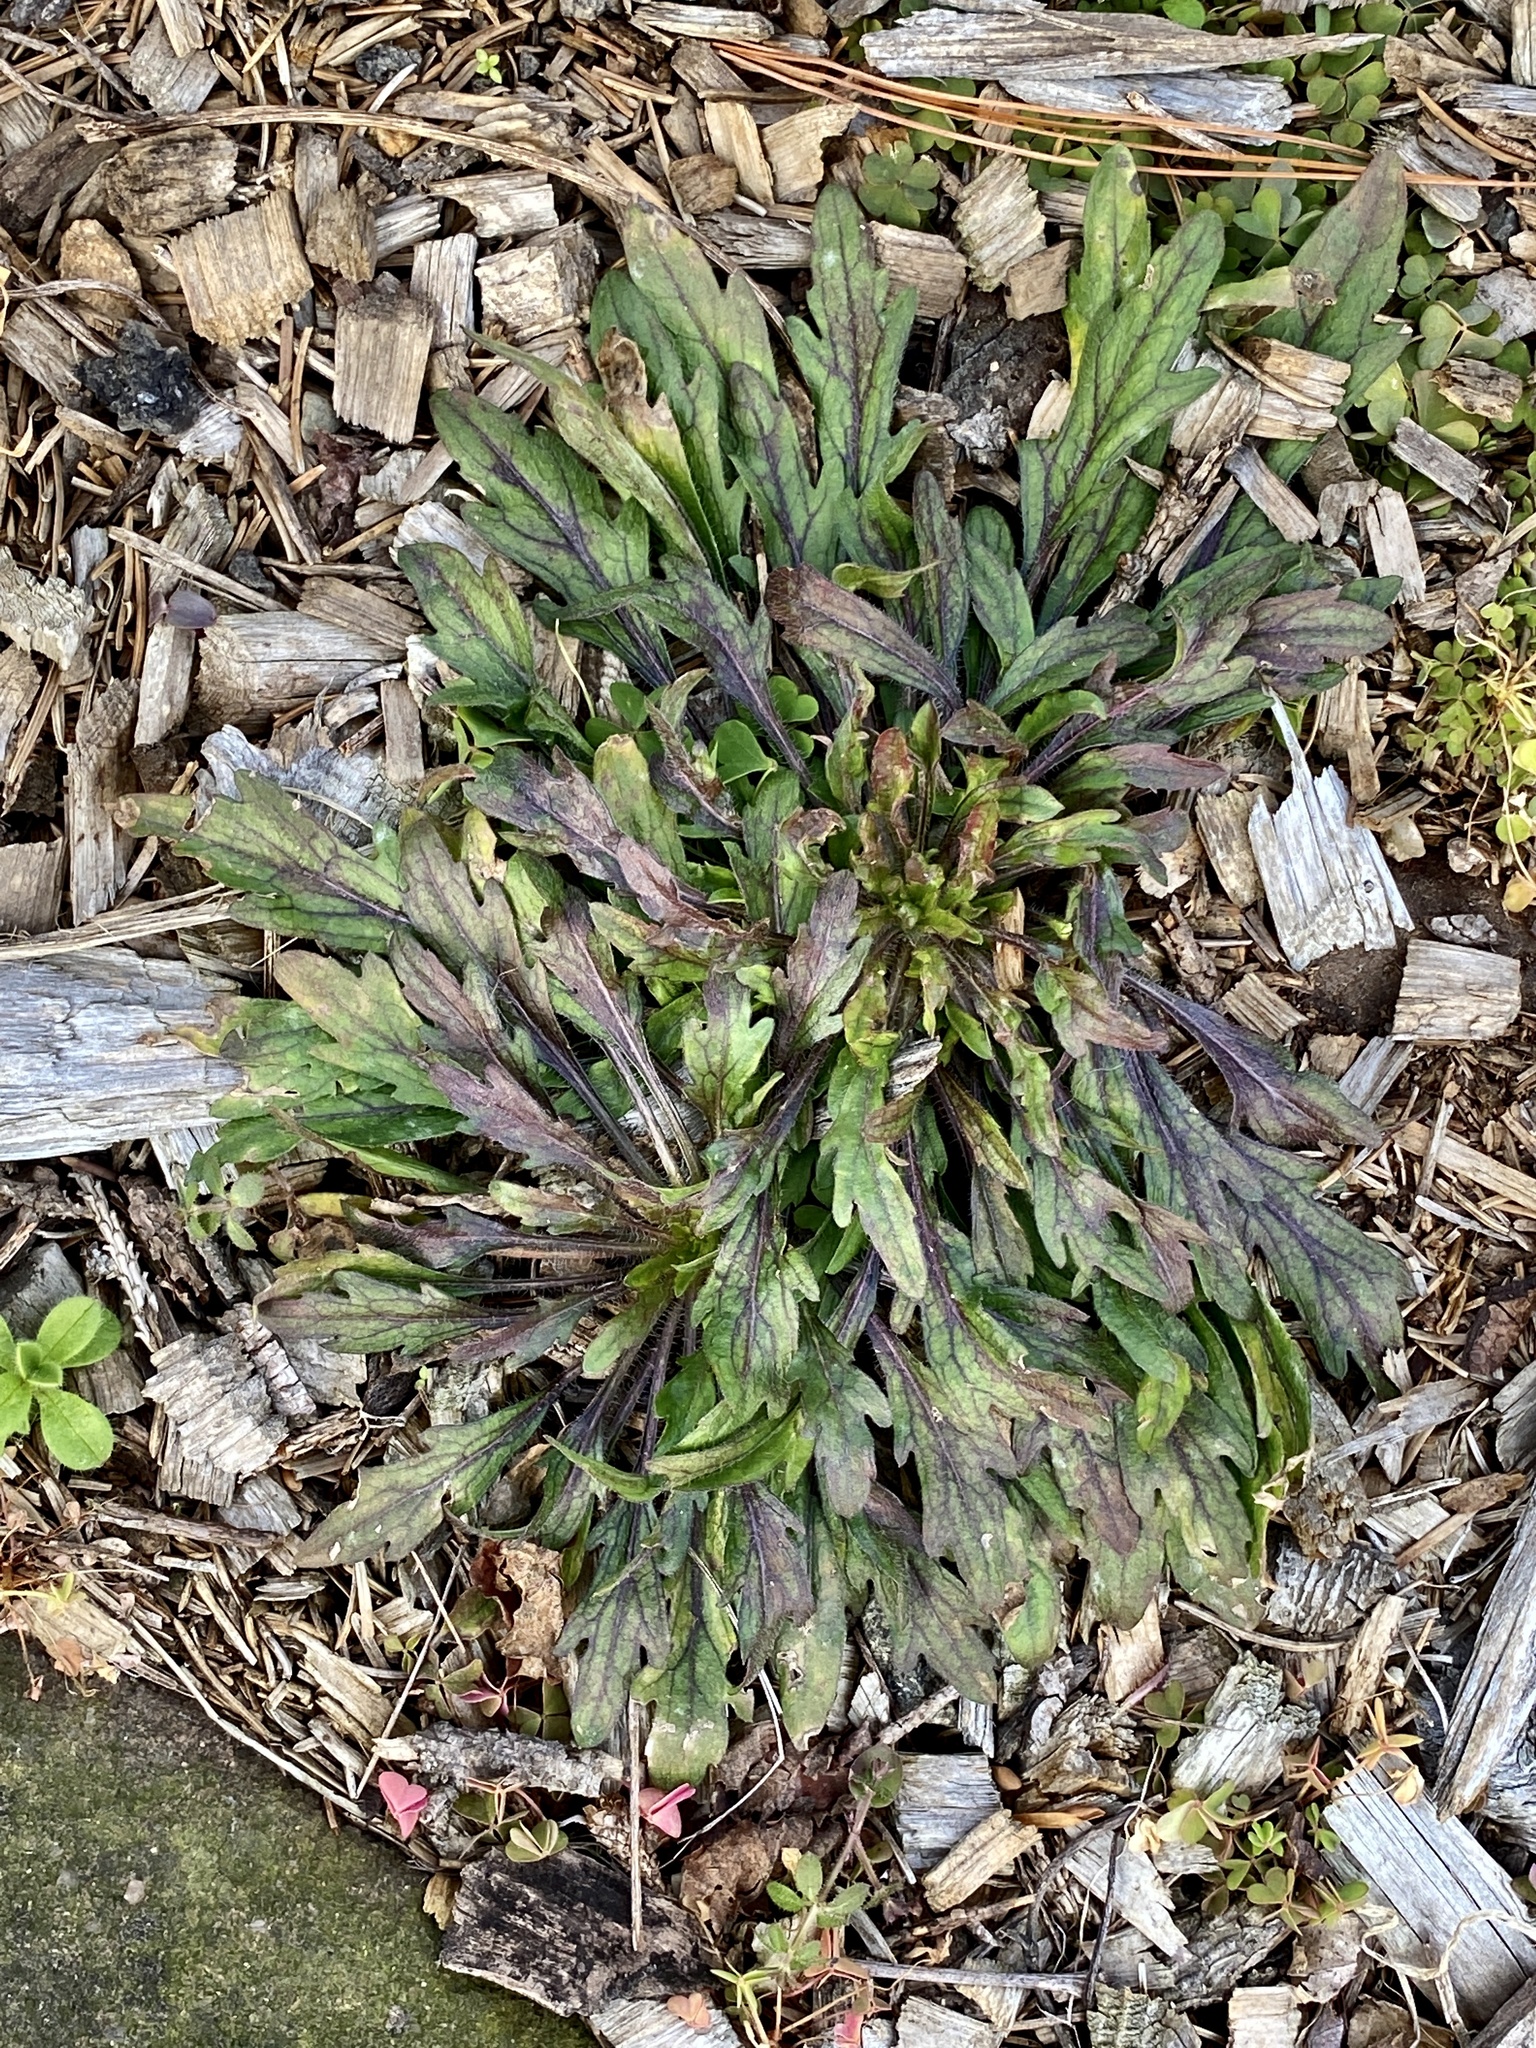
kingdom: Plantae
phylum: Tracheophyta
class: Magnoliopsida
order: Asterales
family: Asteraceae
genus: Erigeron
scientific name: Erigeron canadensis
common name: Canadian fleabane
